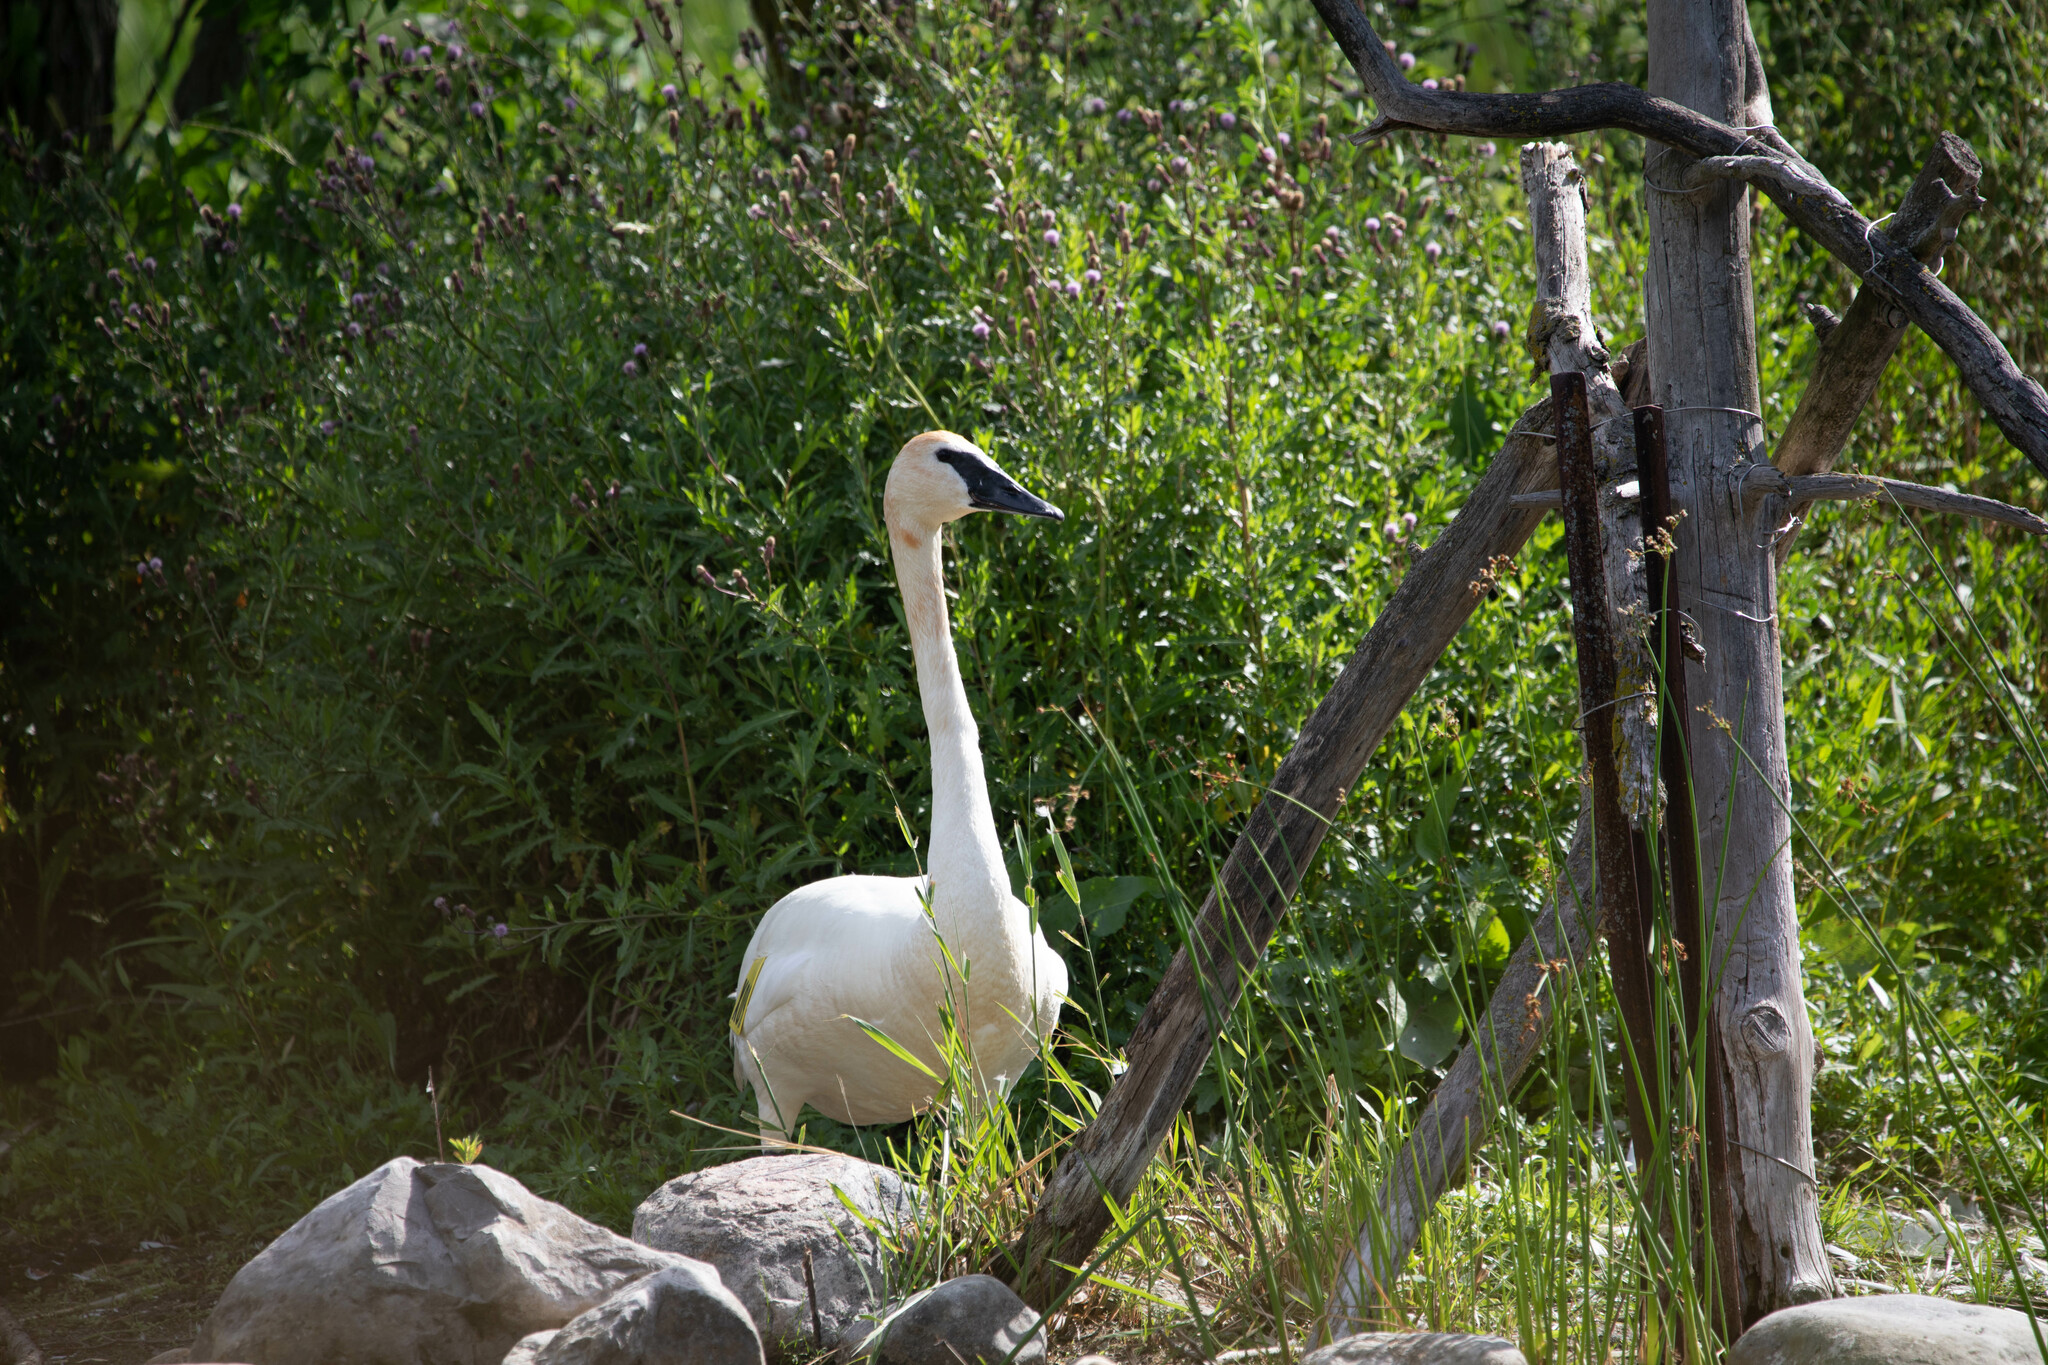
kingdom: Animalia
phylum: Chordata
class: Aves
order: Anseriformes
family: Anatidae
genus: Cygnus
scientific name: Cygnus buccinator
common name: Trumpeter swan
